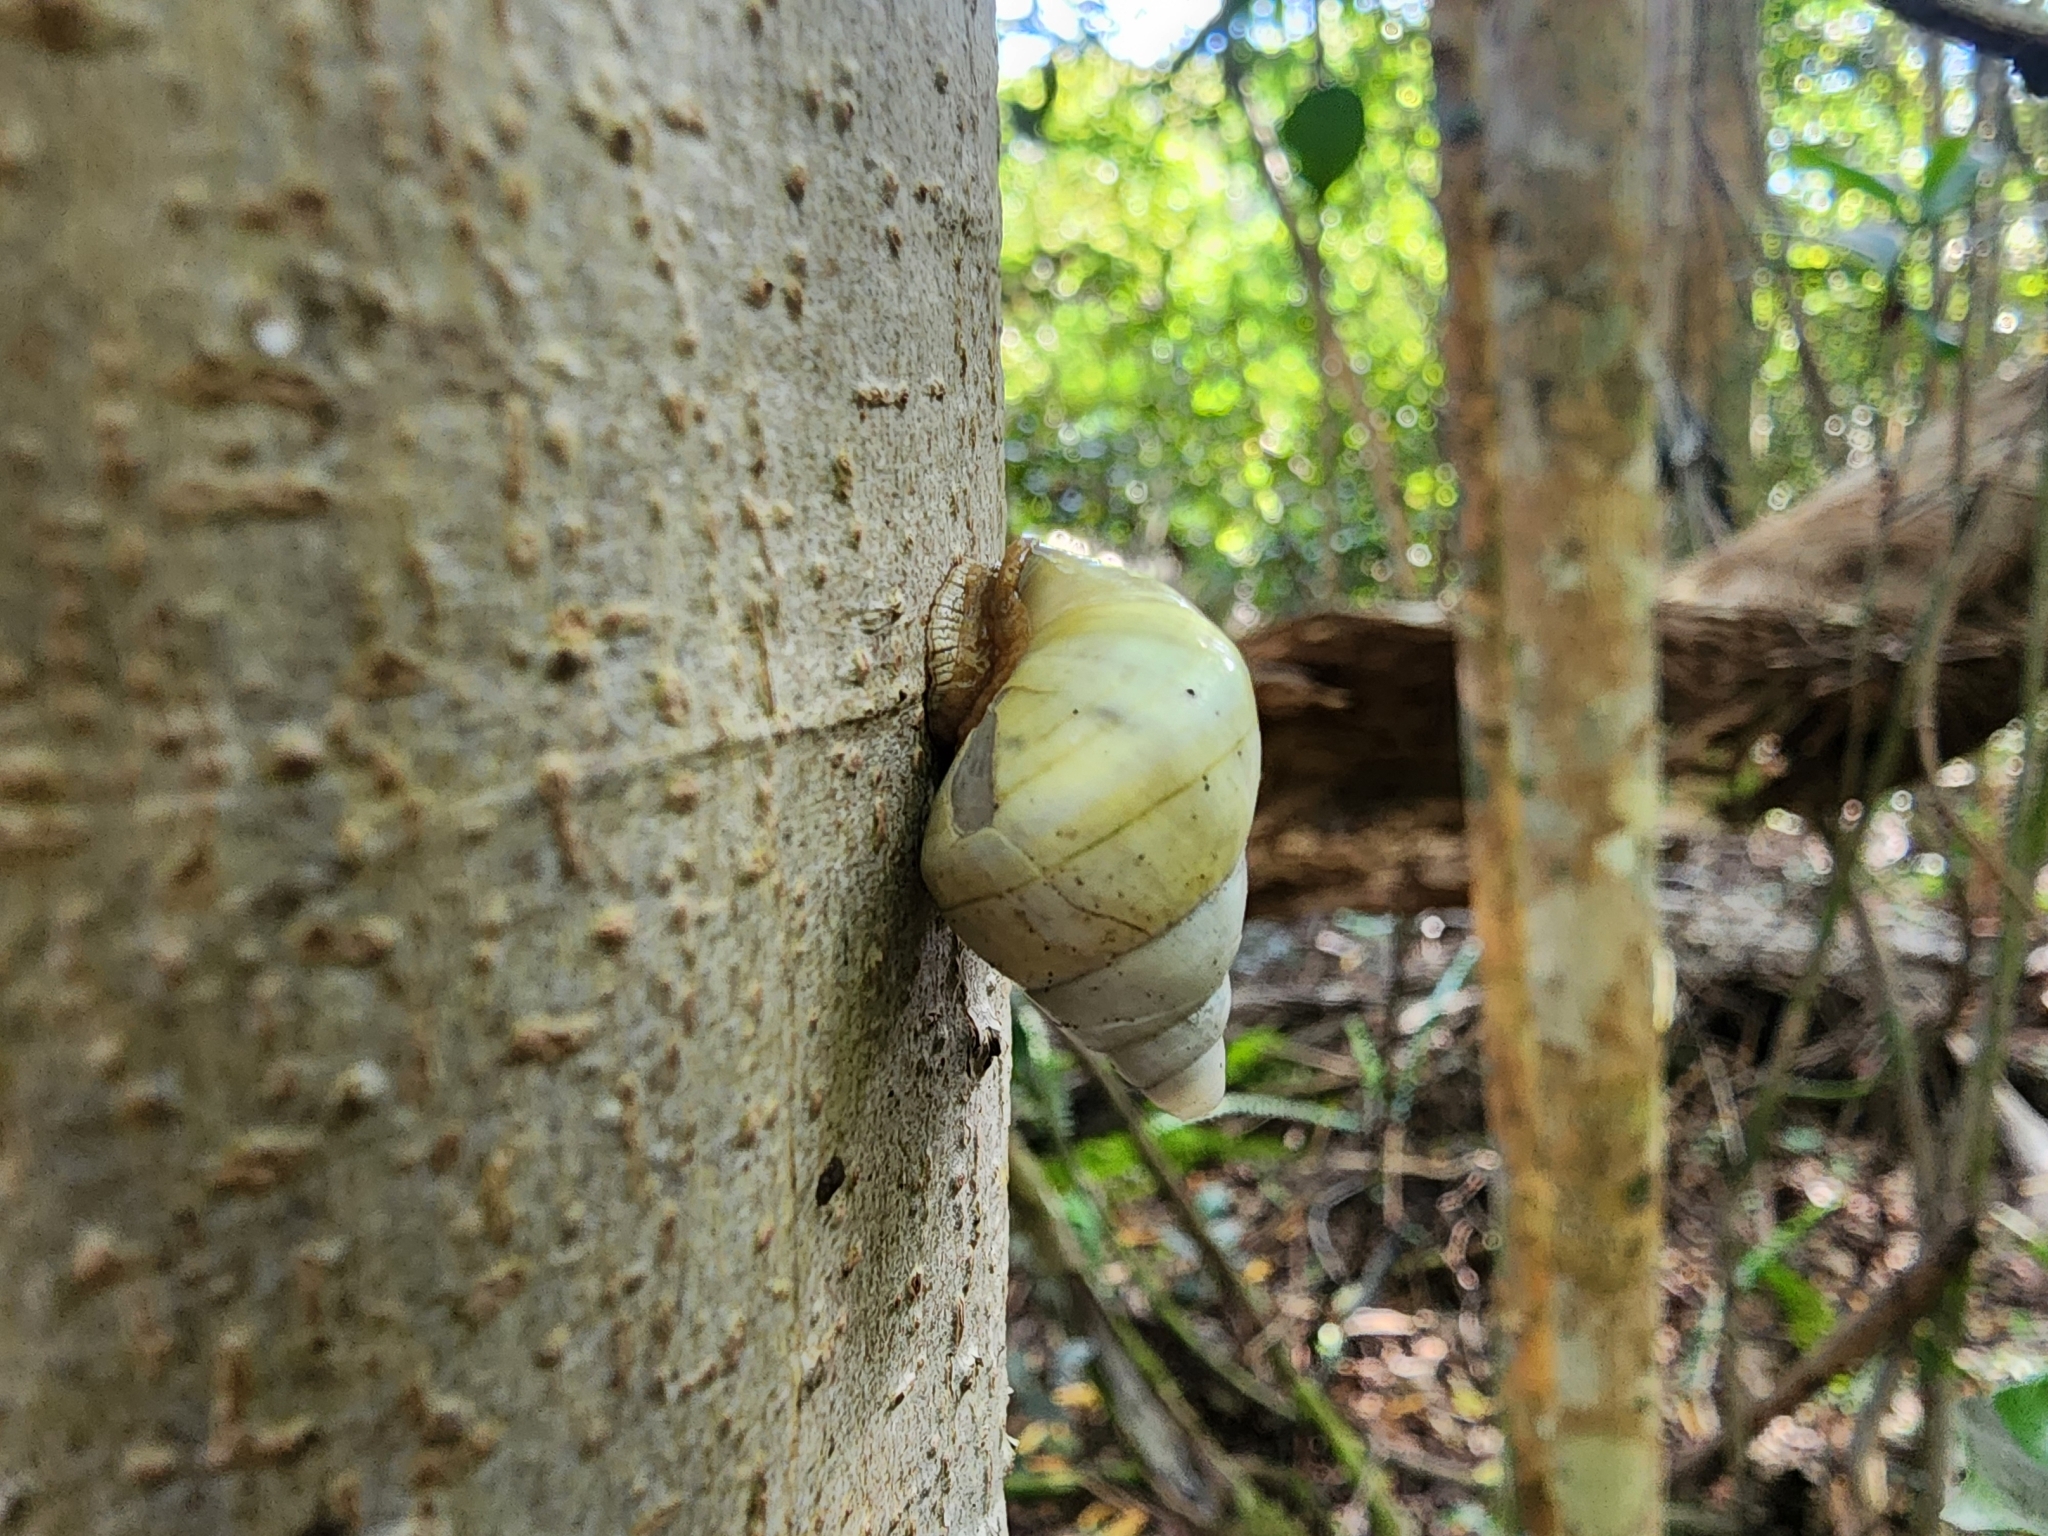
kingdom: Animalia
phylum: Mollusca
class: Gastropoda
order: Stylommatophora
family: Orthalicidae
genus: Liguus
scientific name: Liguus fasciatus
